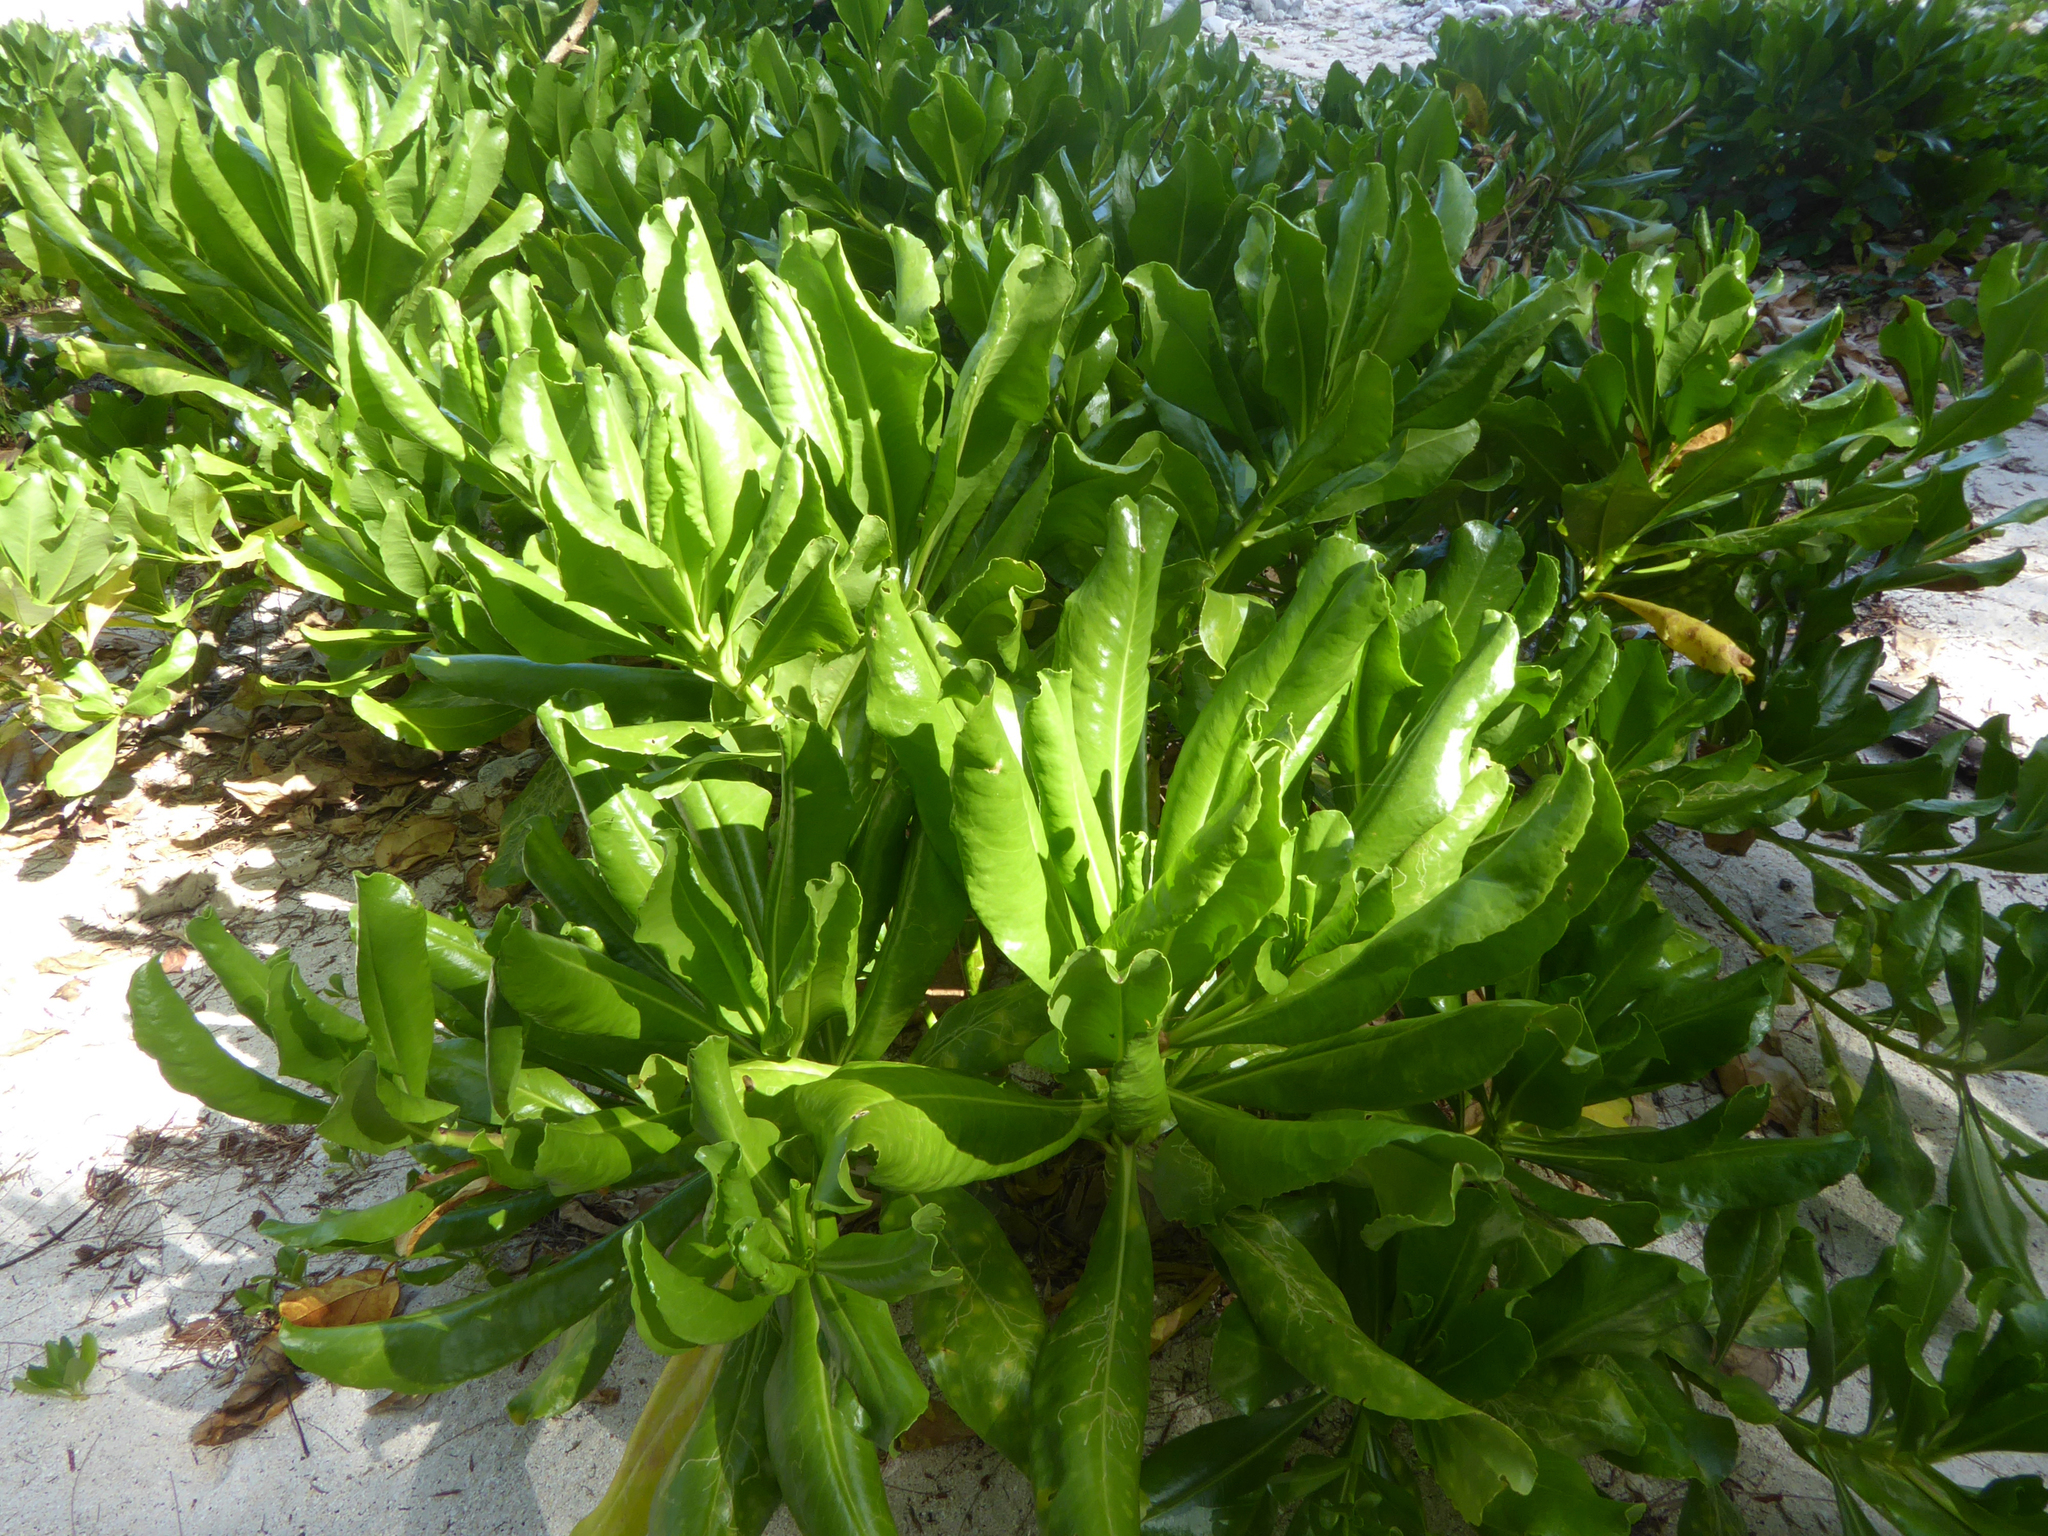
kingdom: Plantae
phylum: Tracheophyta
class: Magnoliopsida
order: Asterales
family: Goodeniaceae
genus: Scaevola
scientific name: Scaevola taccada
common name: Sea lettucetree
